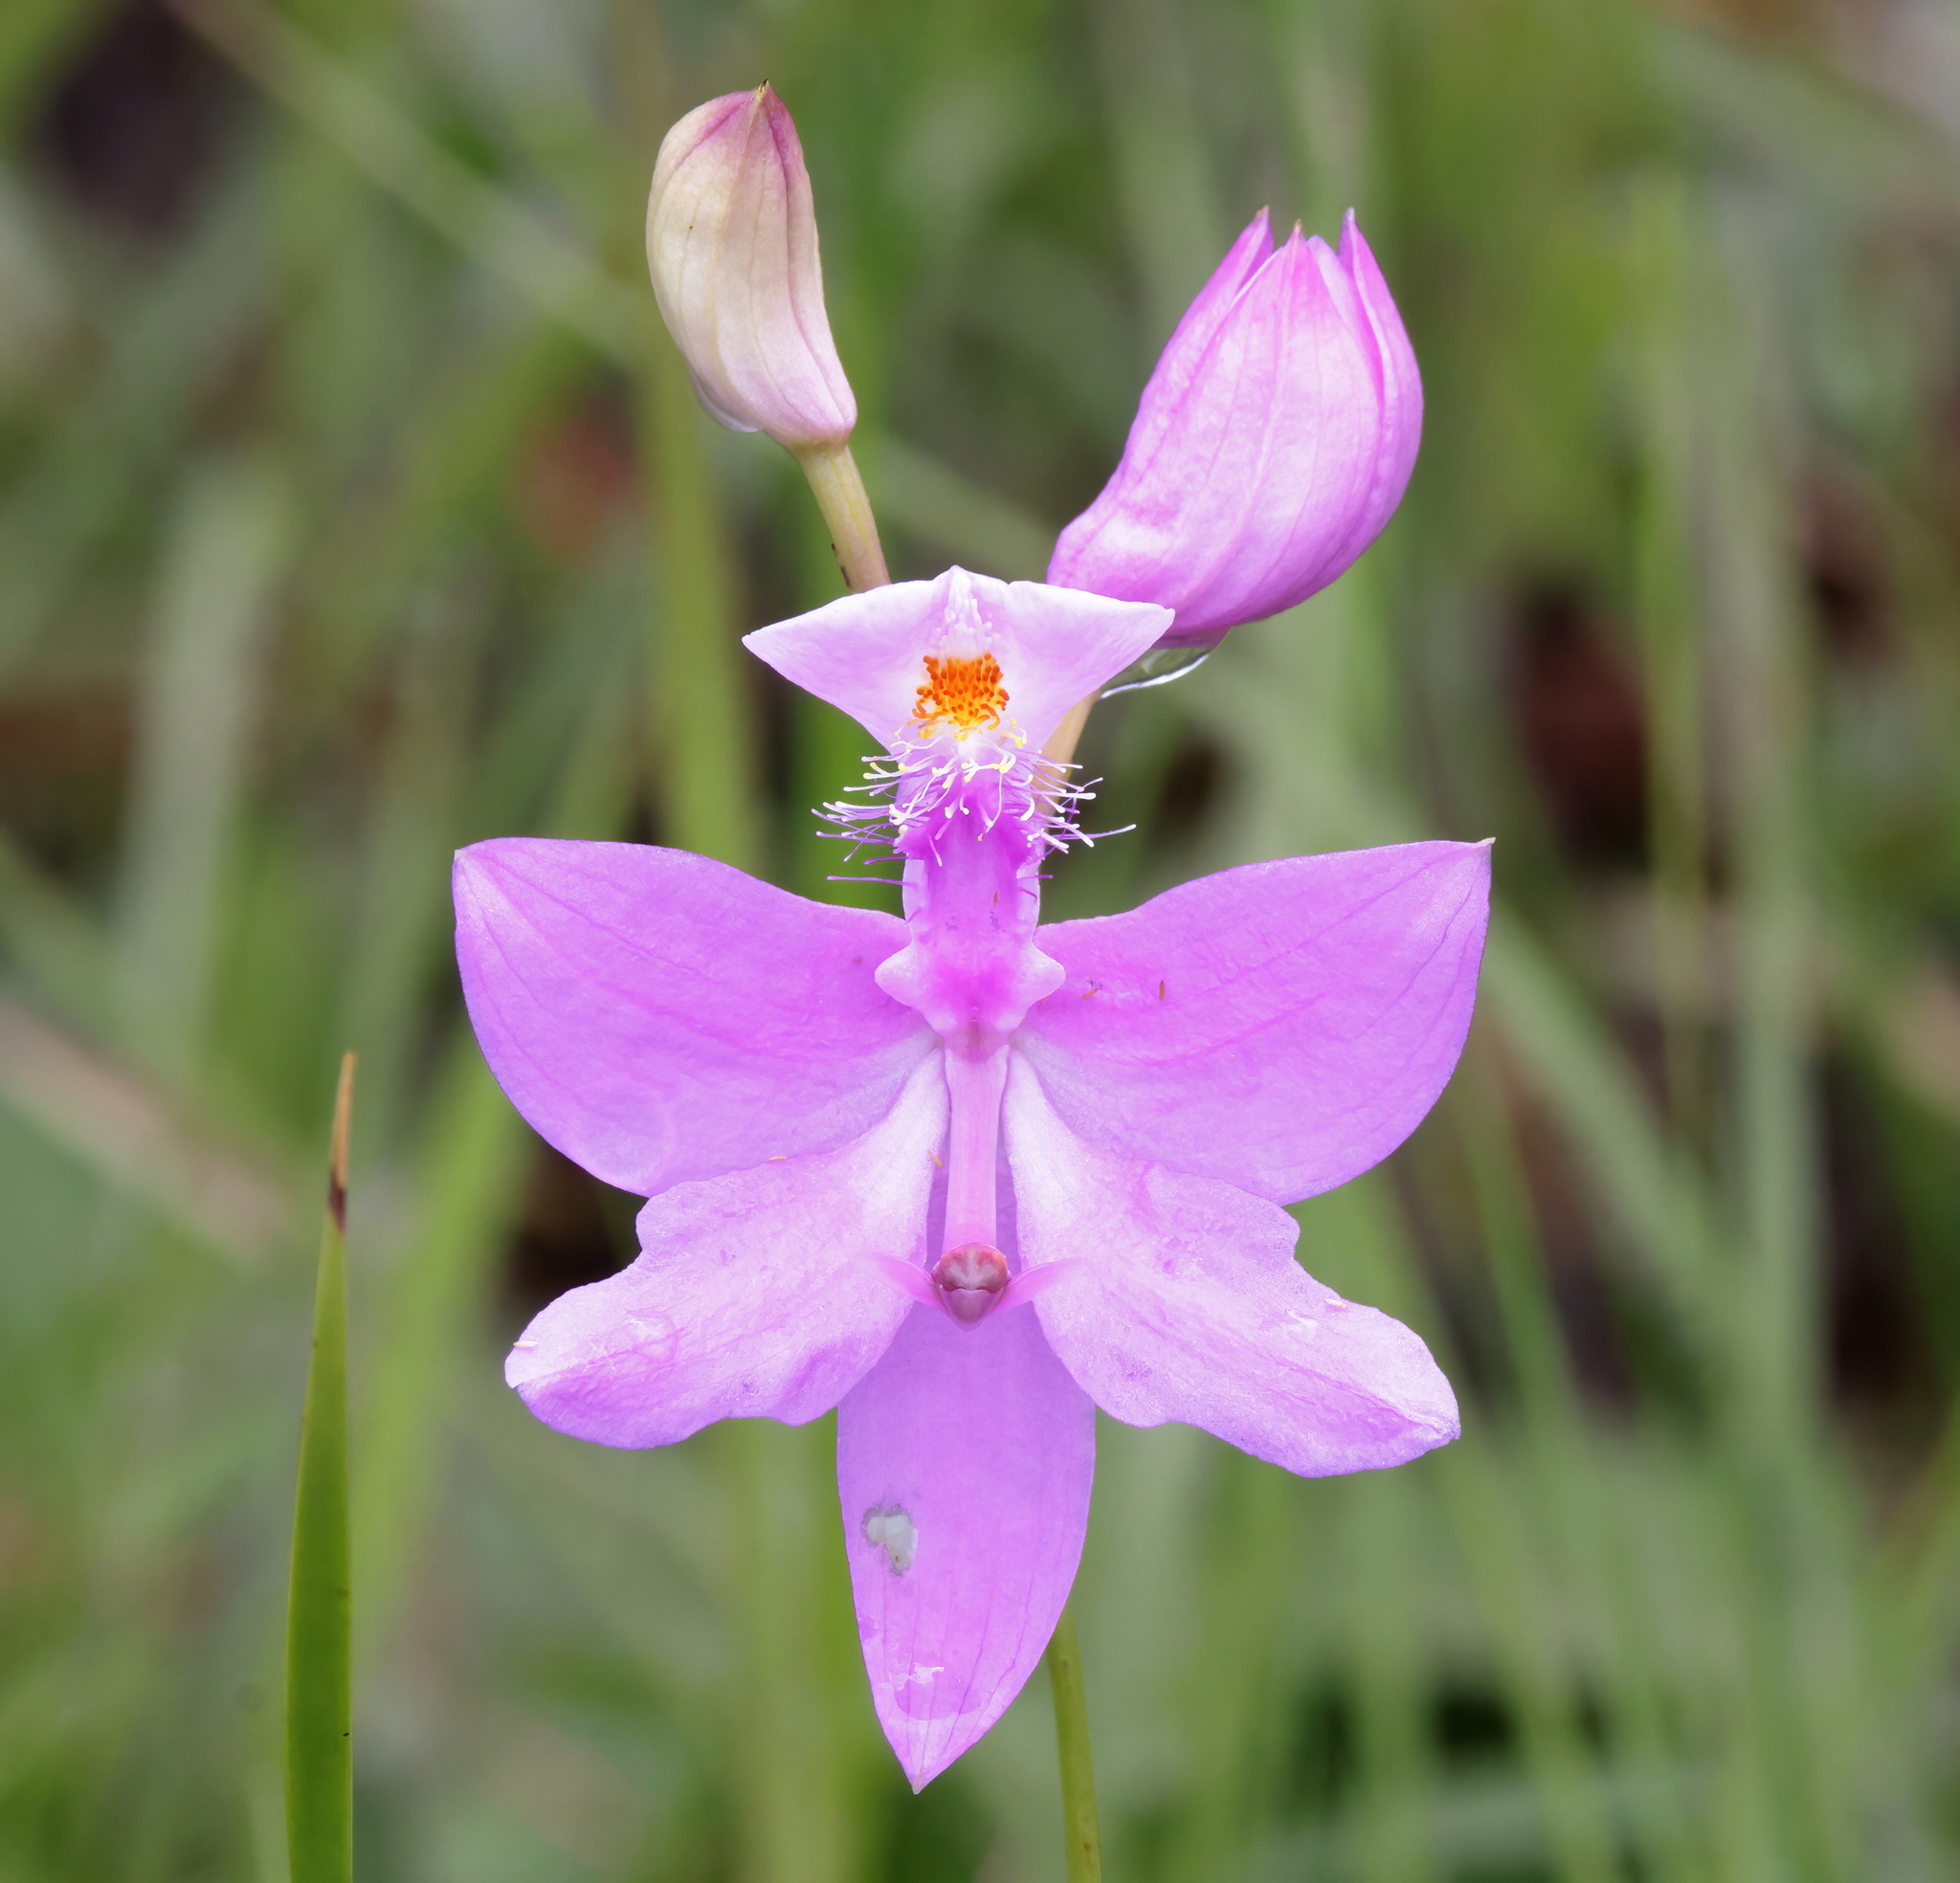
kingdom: Plantae
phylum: Tracheophyta
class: Liliopsida
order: Asparagales
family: Orchidaceae
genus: Calopogon
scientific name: Calopogon tuberosus
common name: Grass-pink
